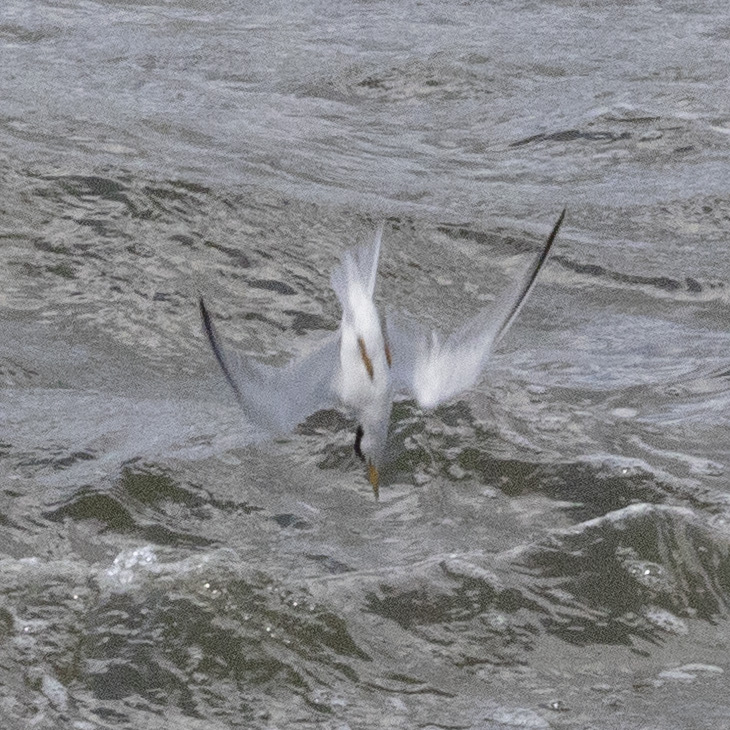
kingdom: Animalia
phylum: Chordata
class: Aves
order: Charadriiformes
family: Laridae
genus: Sternula
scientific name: Sternula antillarum
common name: Least tern
